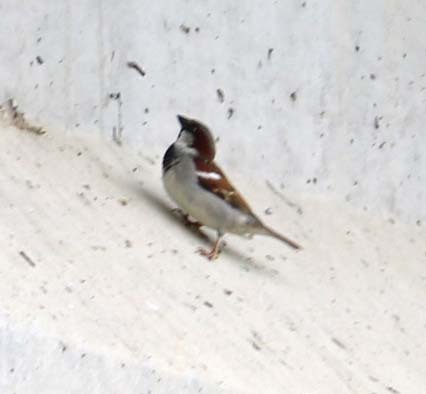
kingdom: Animalia
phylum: Chordata
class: Aves
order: Passeriformes
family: Passeridae
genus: Passer
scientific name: Passer domesticus
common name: House sparrow
